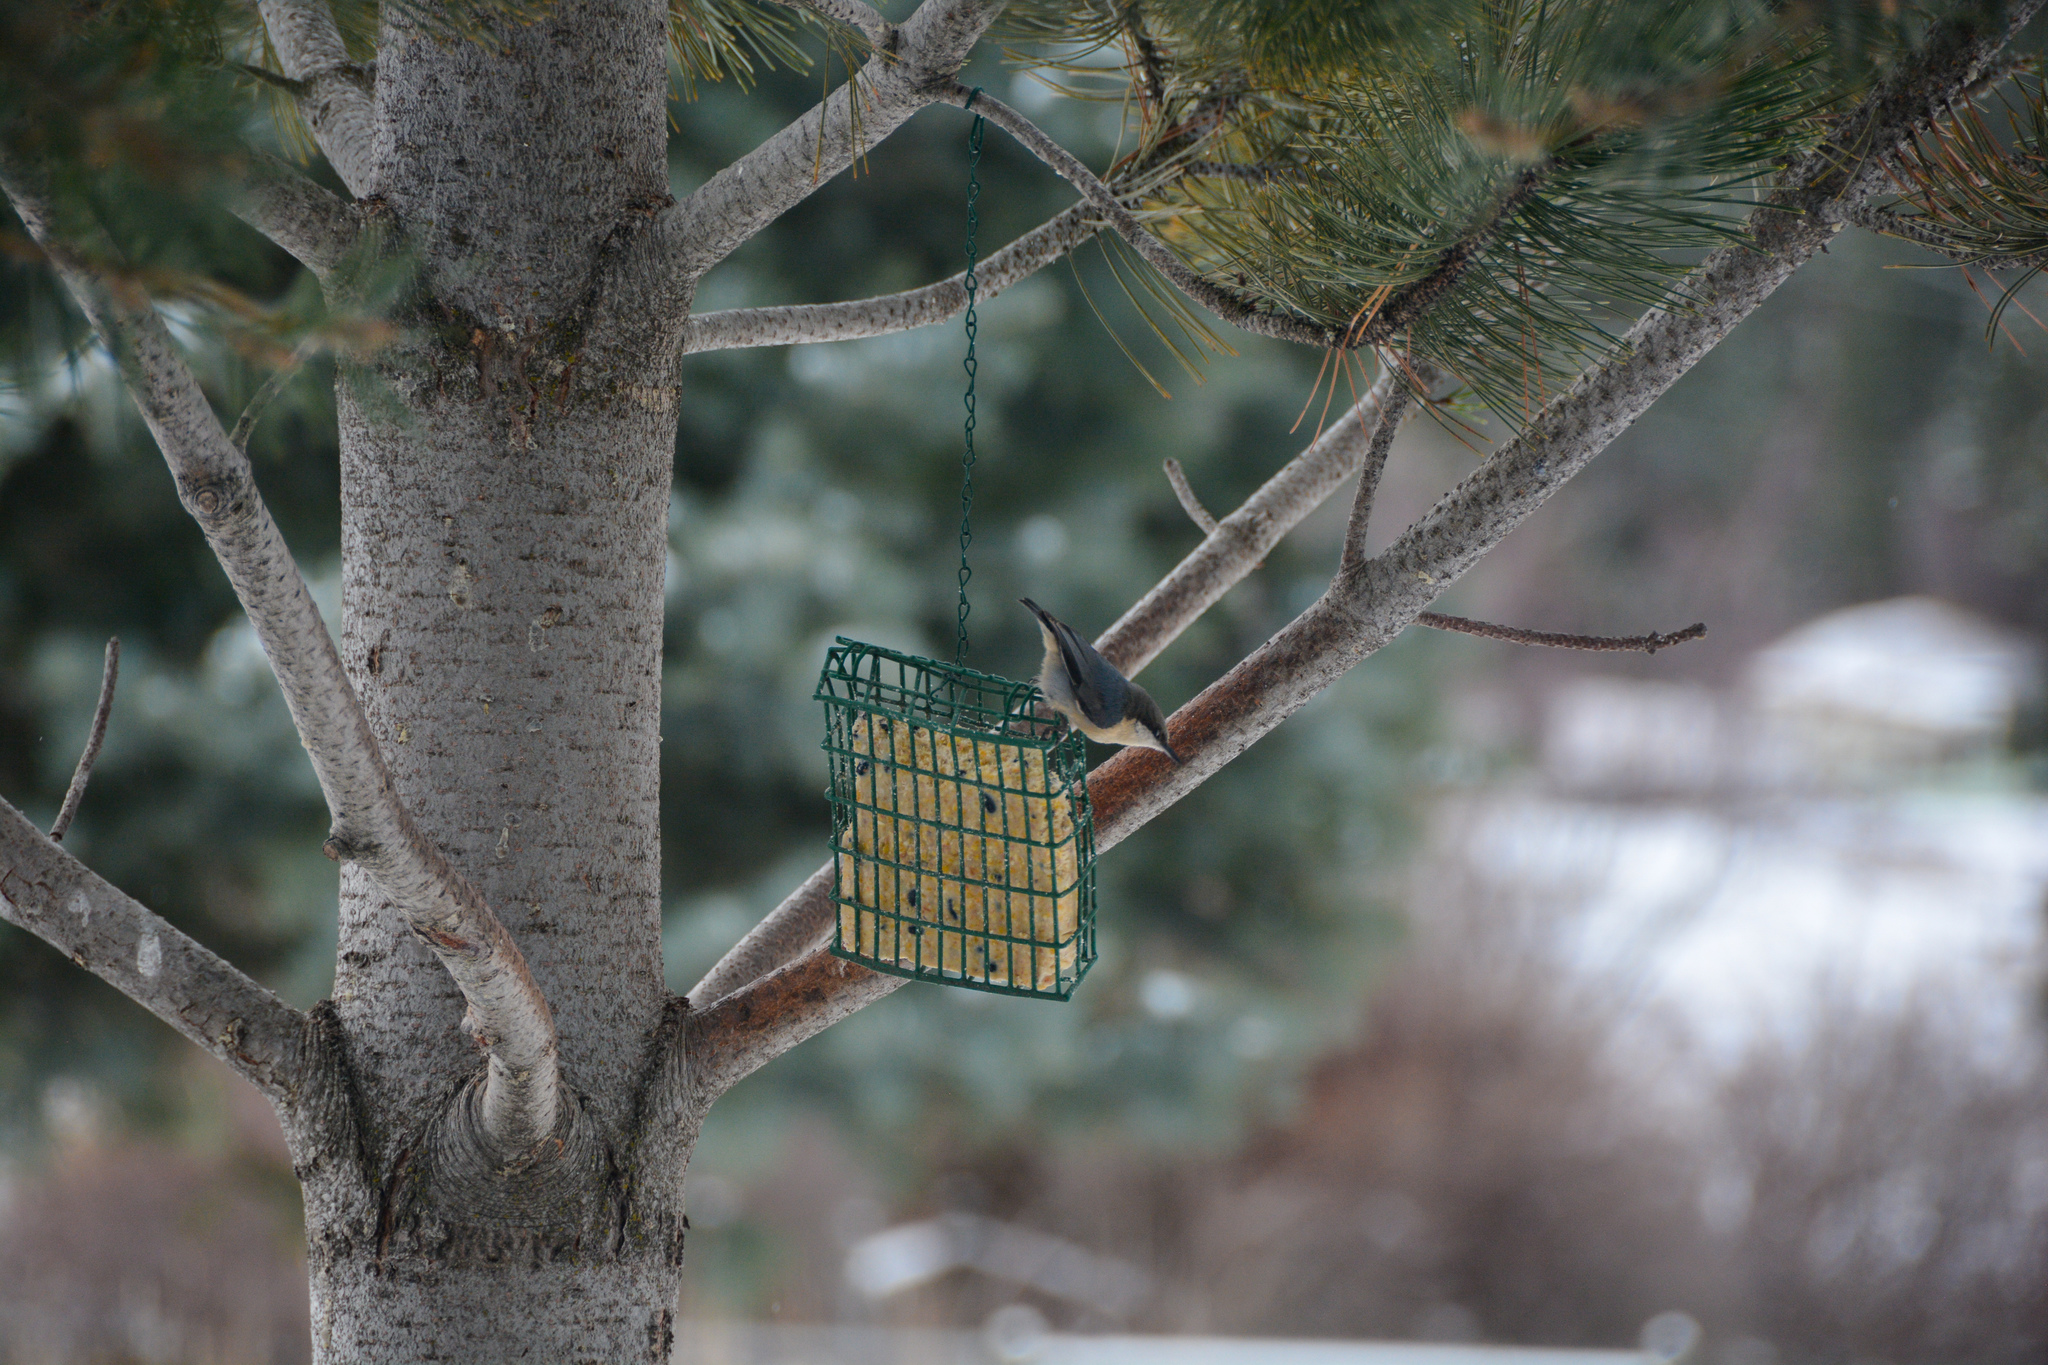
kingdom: Animalia
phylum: Chordata
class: Aves
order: Passeriformes
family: Sittidae
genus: Sitta
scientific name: Sitta pygmaea
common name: Pygmy nuthatch
